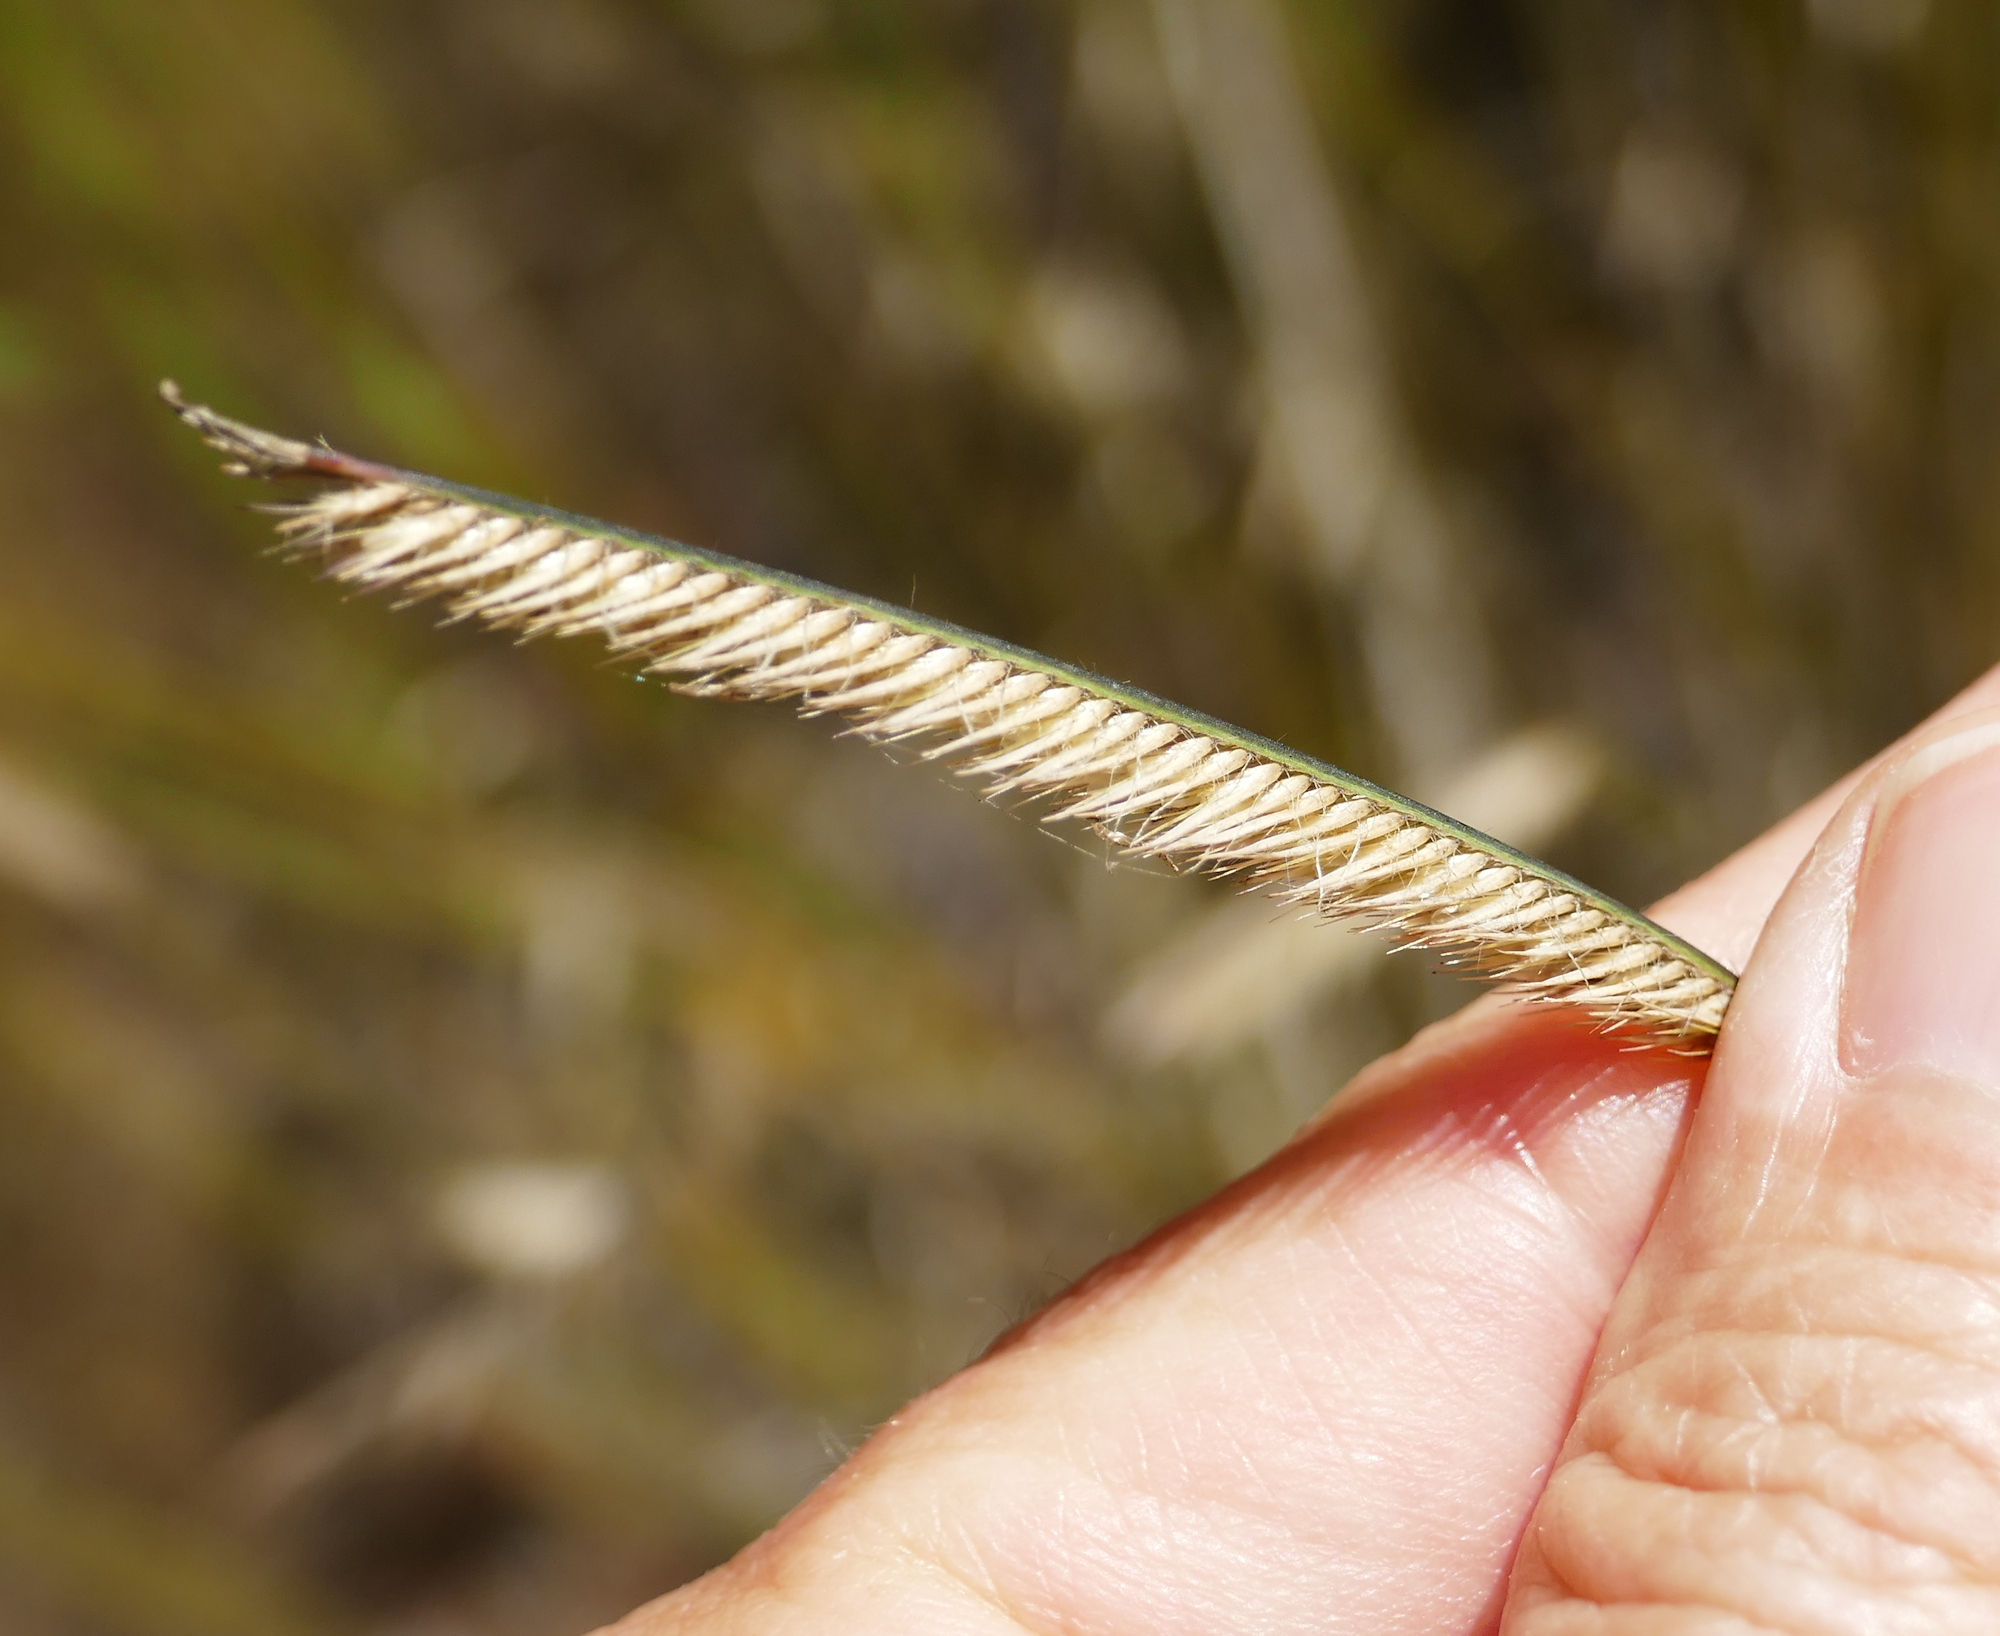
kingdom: Plantae
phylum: Tracheophyta
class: Liliopsida
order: Poales
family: Poaceae
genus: Bouteloua
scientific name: Bouteloua gracilis
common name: Blue grama
